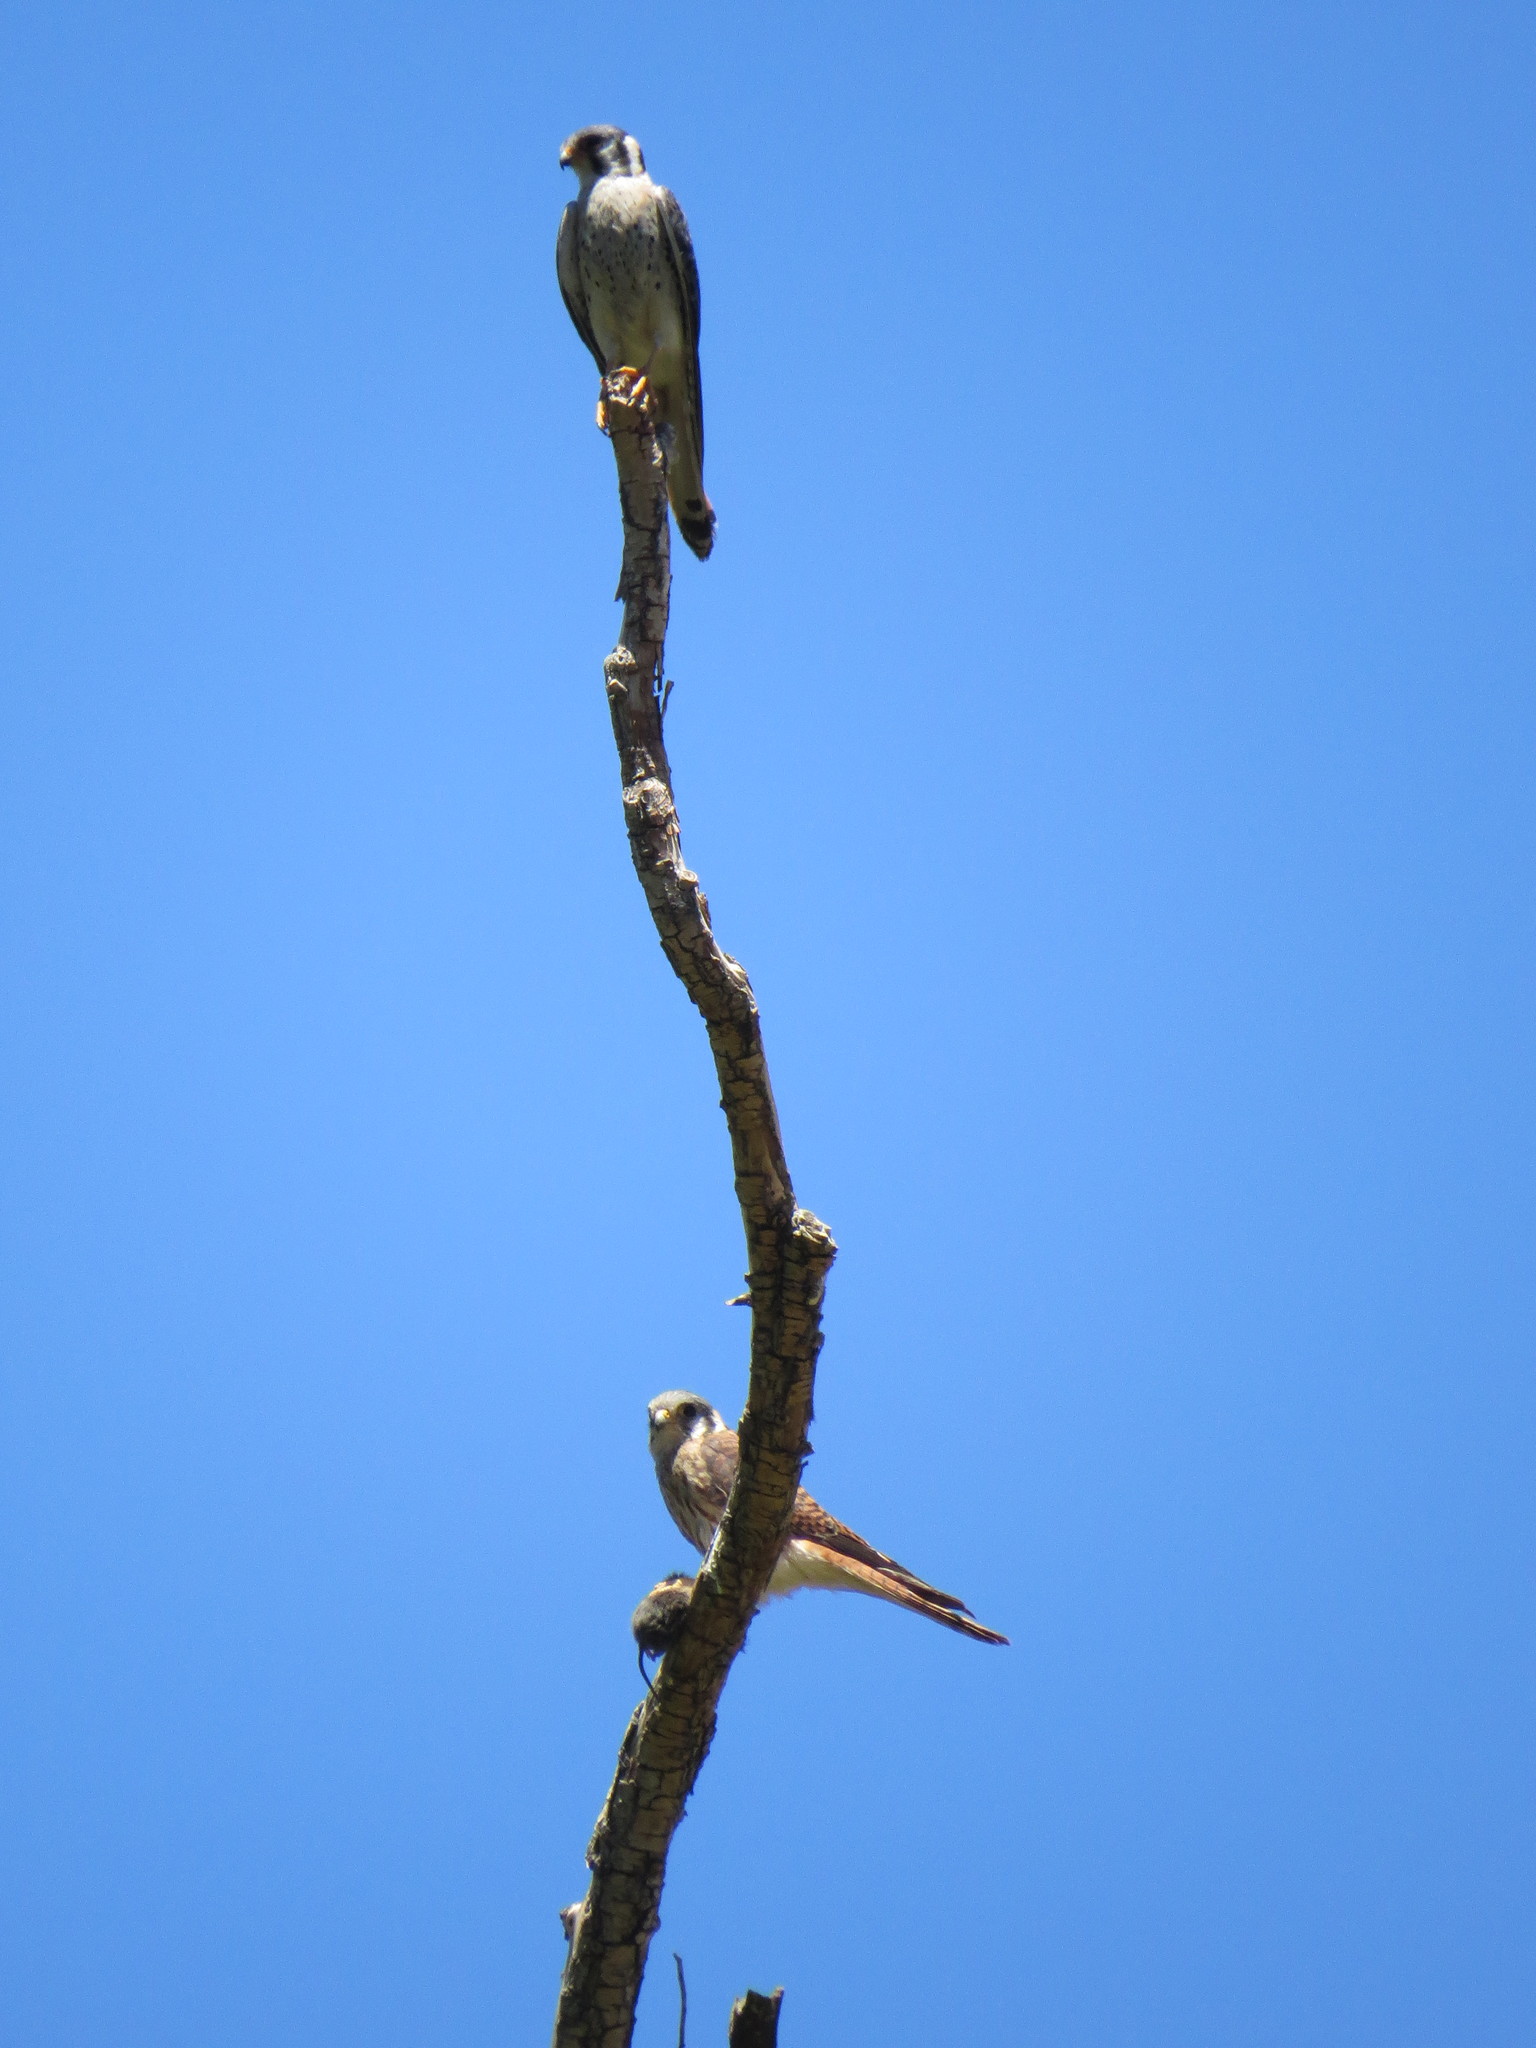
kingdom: Animalia
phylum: Chordata
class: Aves
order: Falconiformes
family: Falconidae
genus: Falco
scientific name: Falco sparverius
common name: American kestrel
